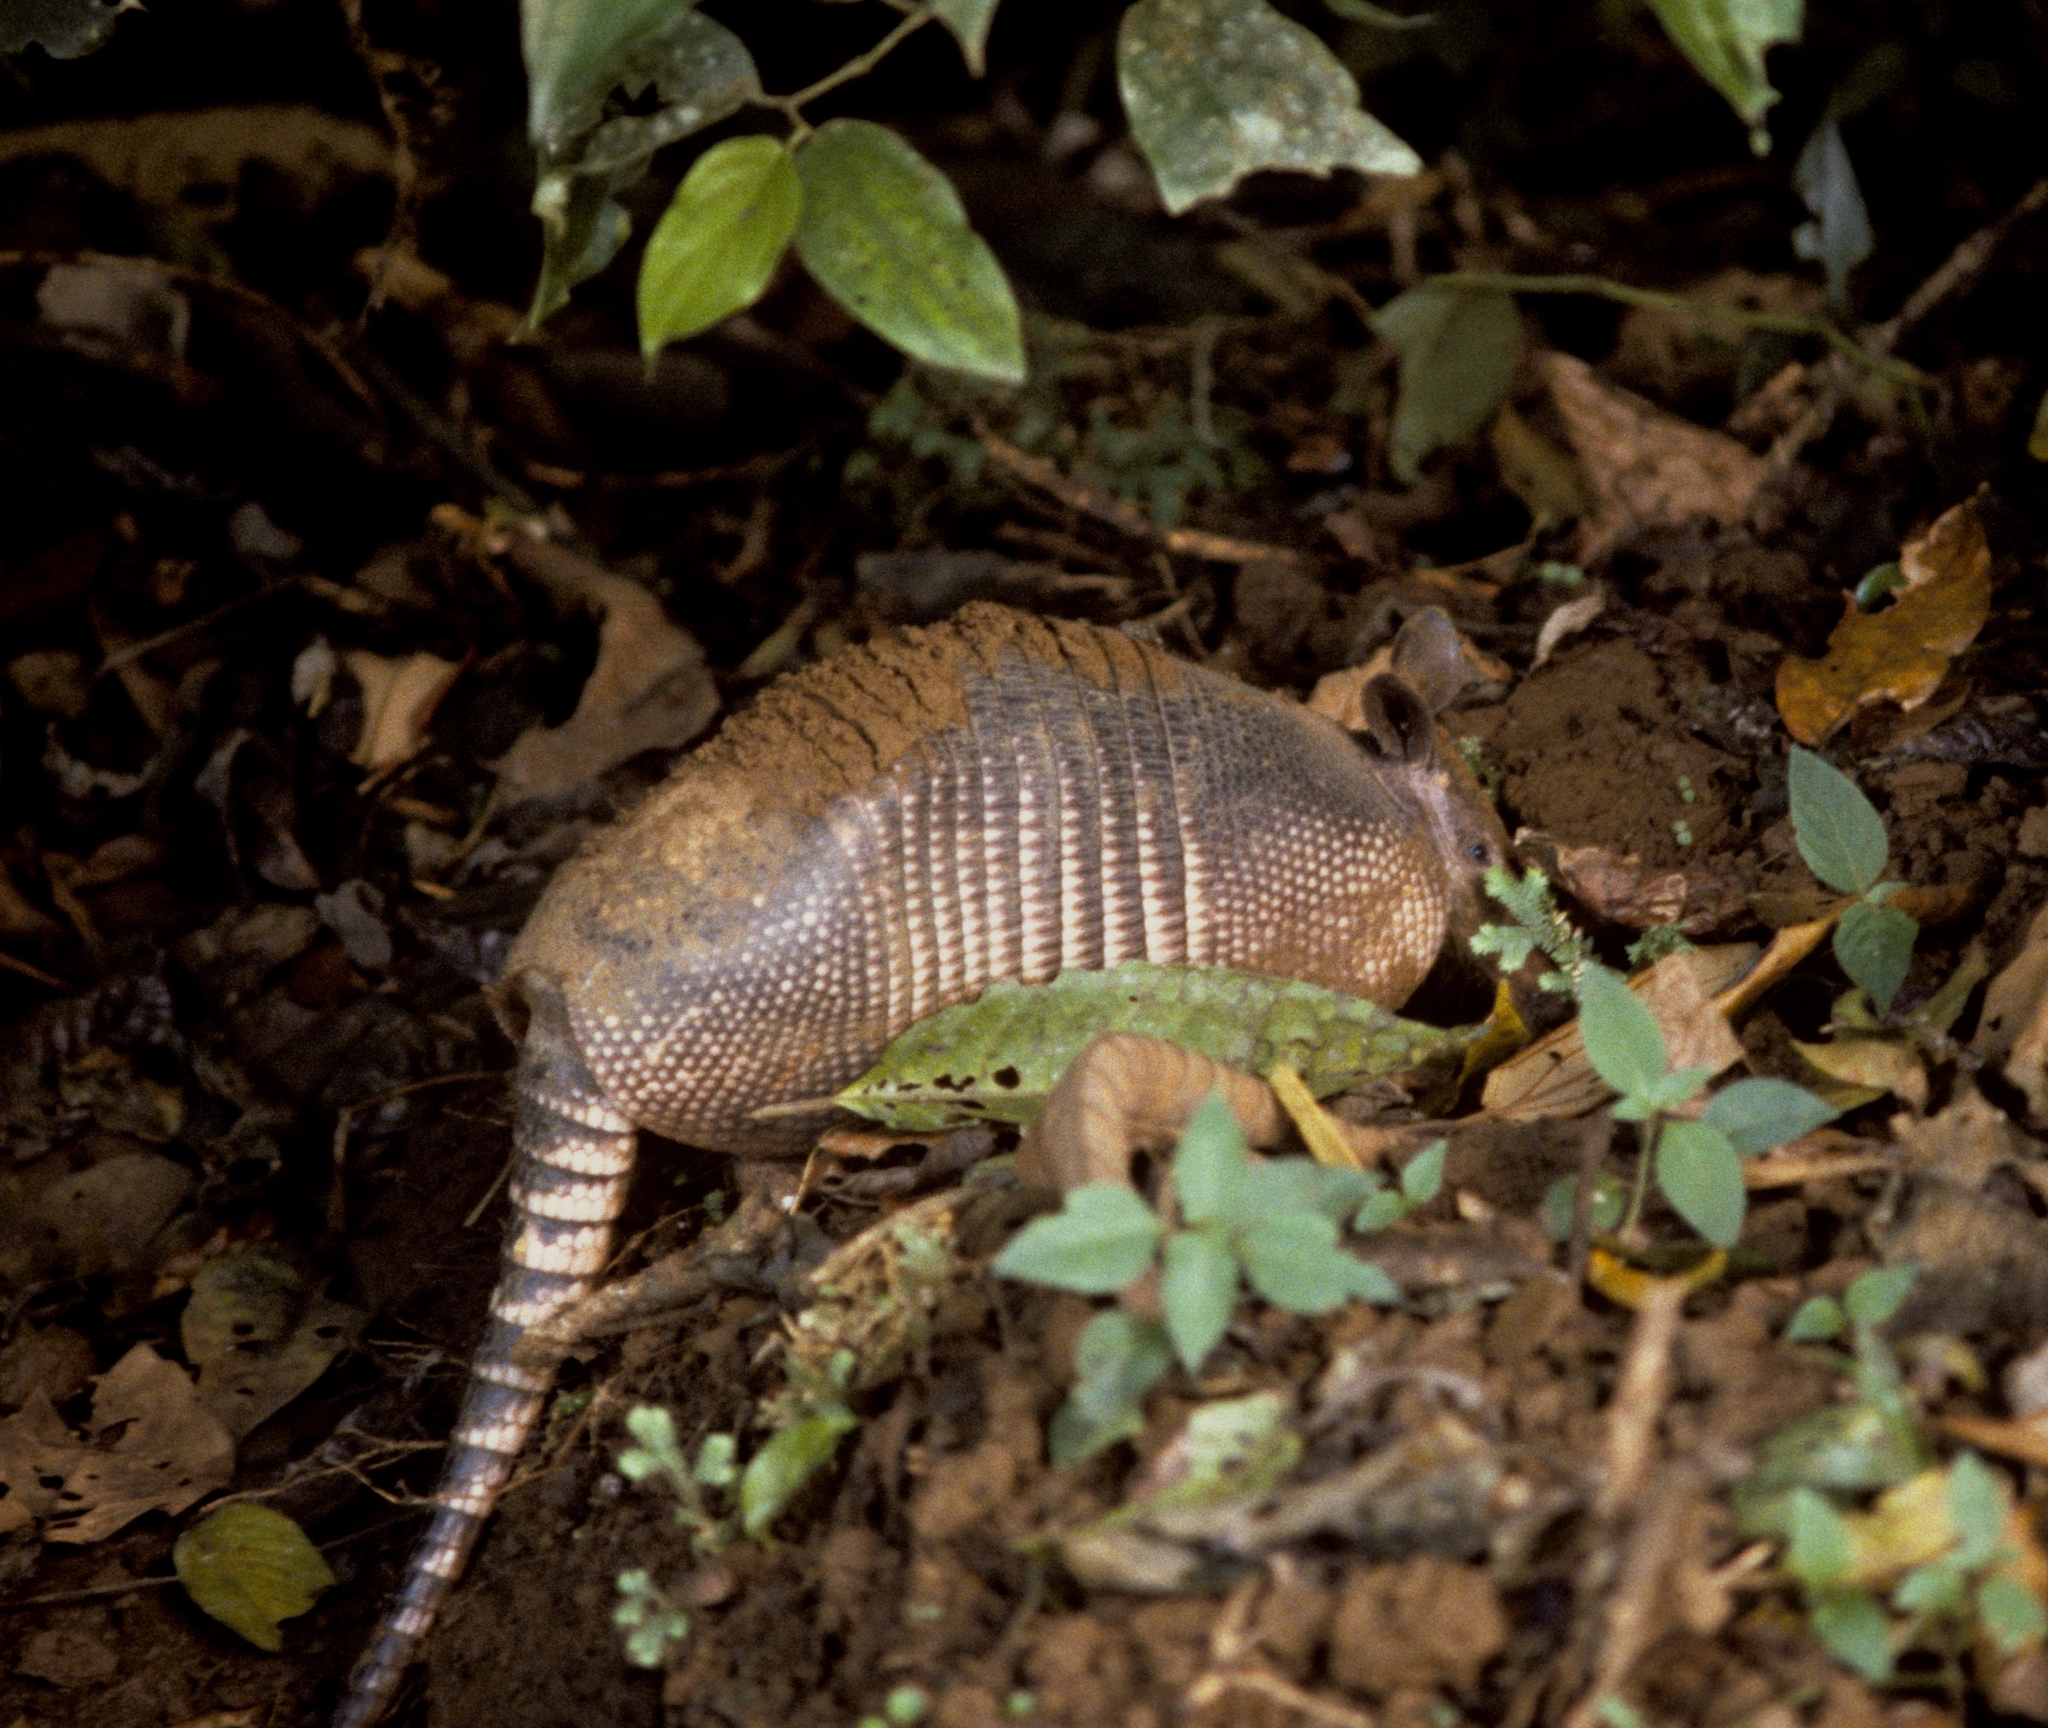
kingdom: Animalia
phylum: Chordata
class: Mammalia
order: Cingulata
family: Dasypodidae
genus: Dasypus
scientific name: Dasypus novemcinctus
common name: Nine-banded armadillo
